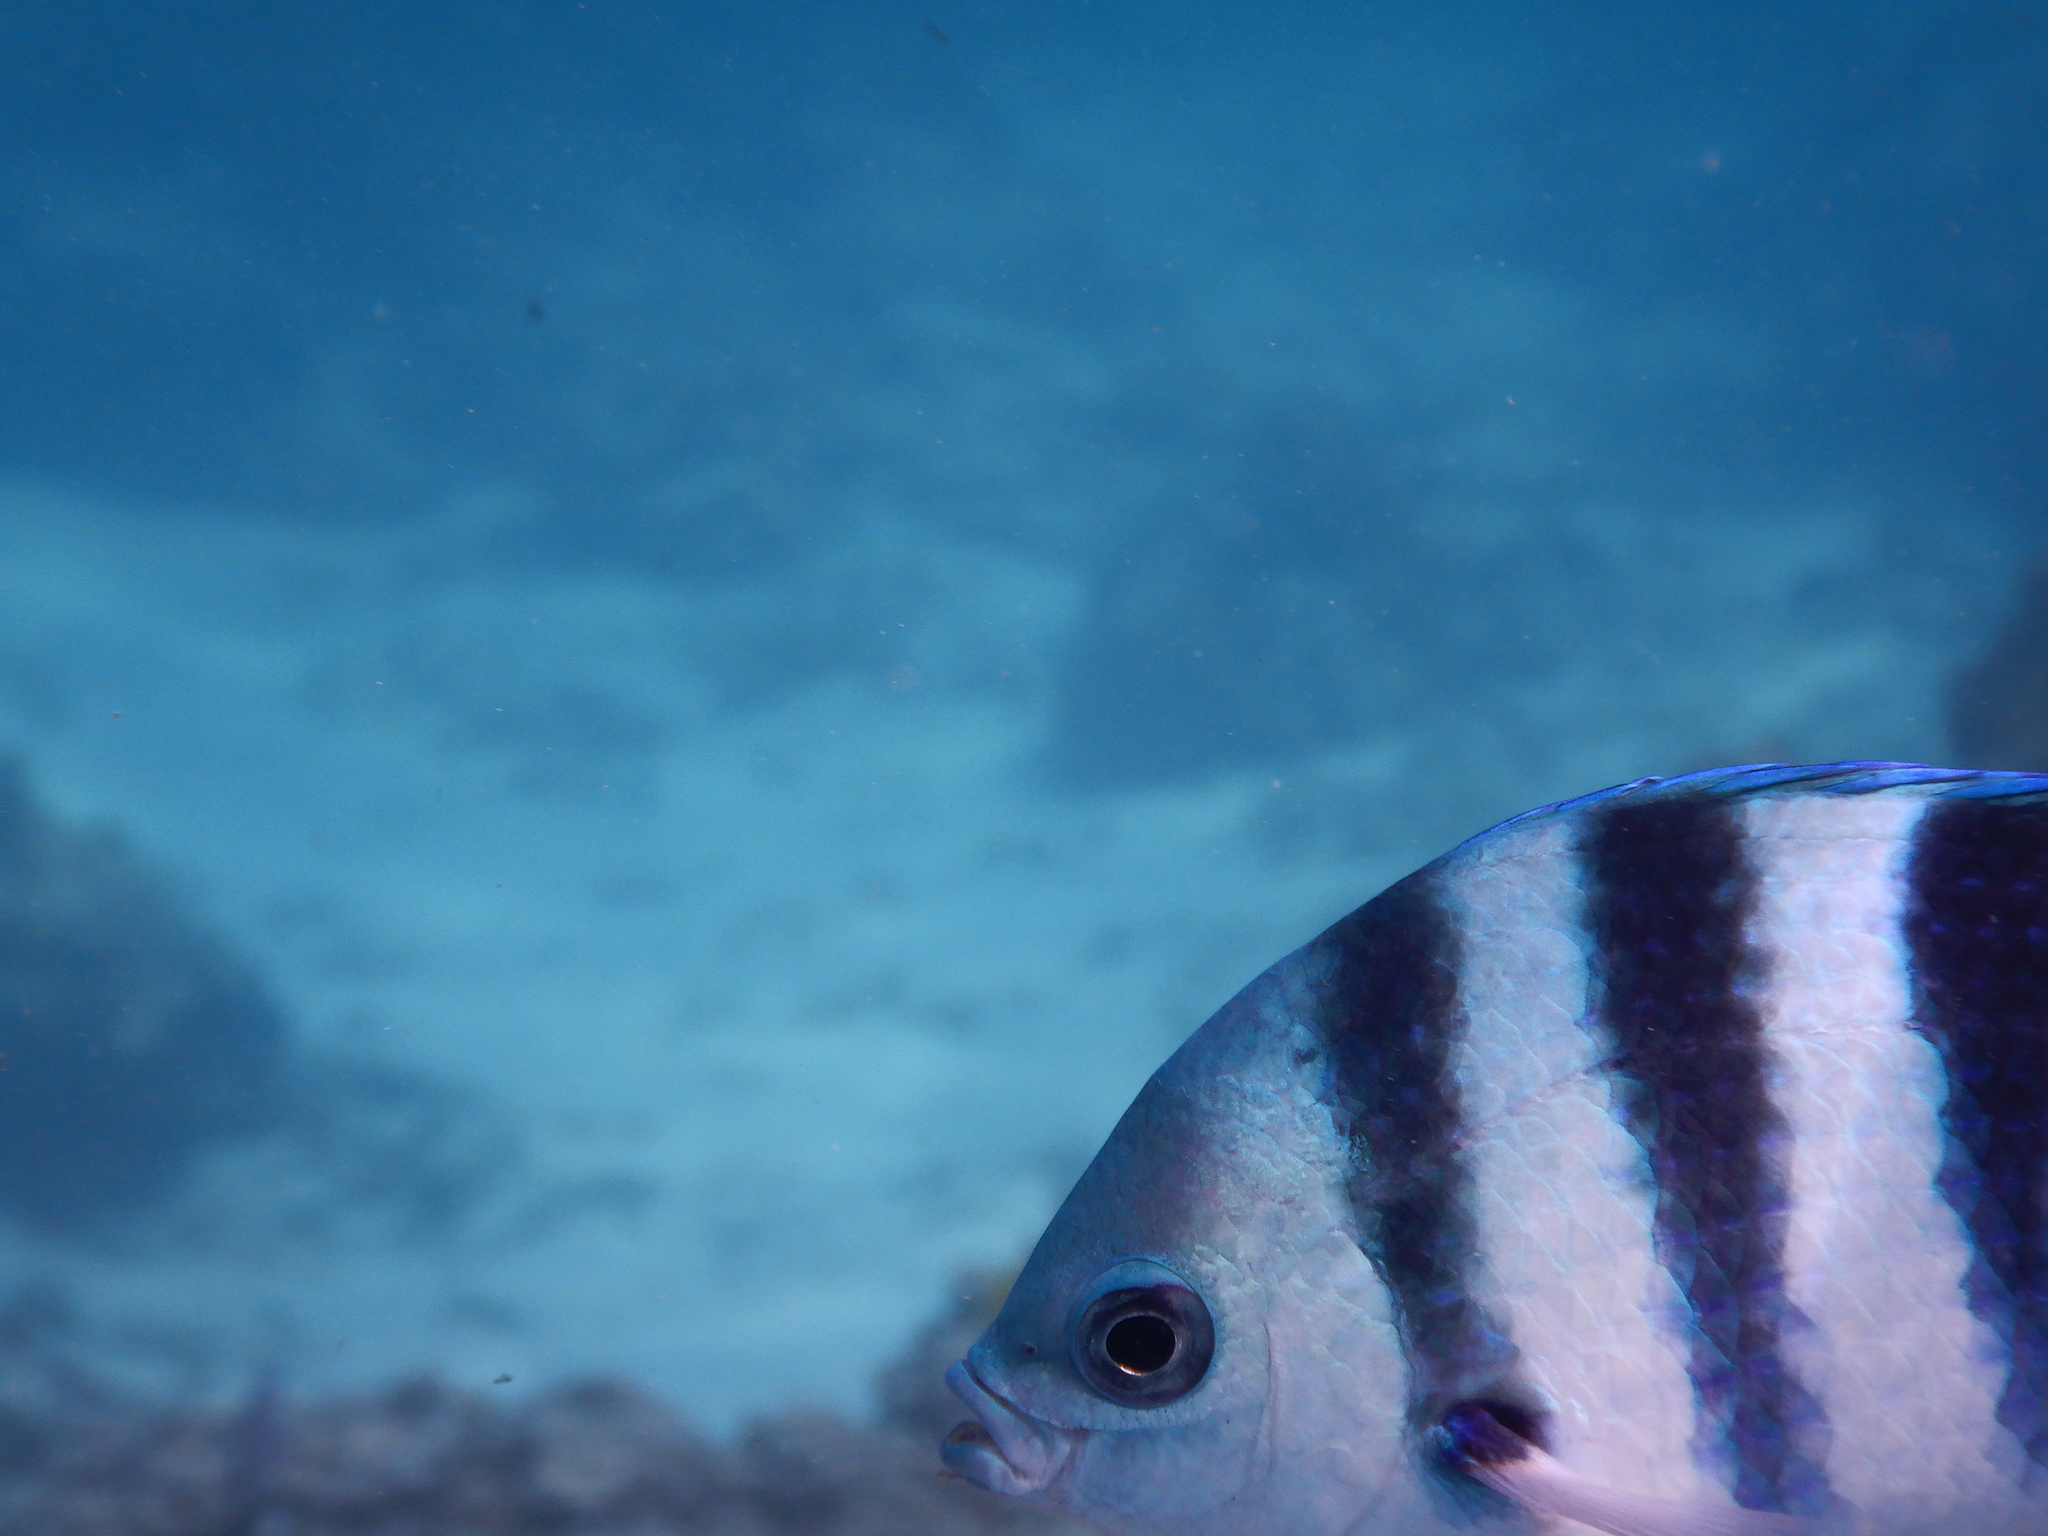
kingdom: Animalia
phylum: Chordata
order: Perciformes
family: Pomacentridae
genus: Abudefduf
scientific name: Abudefduf sexfasciatus
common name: Scissortail sergeant
